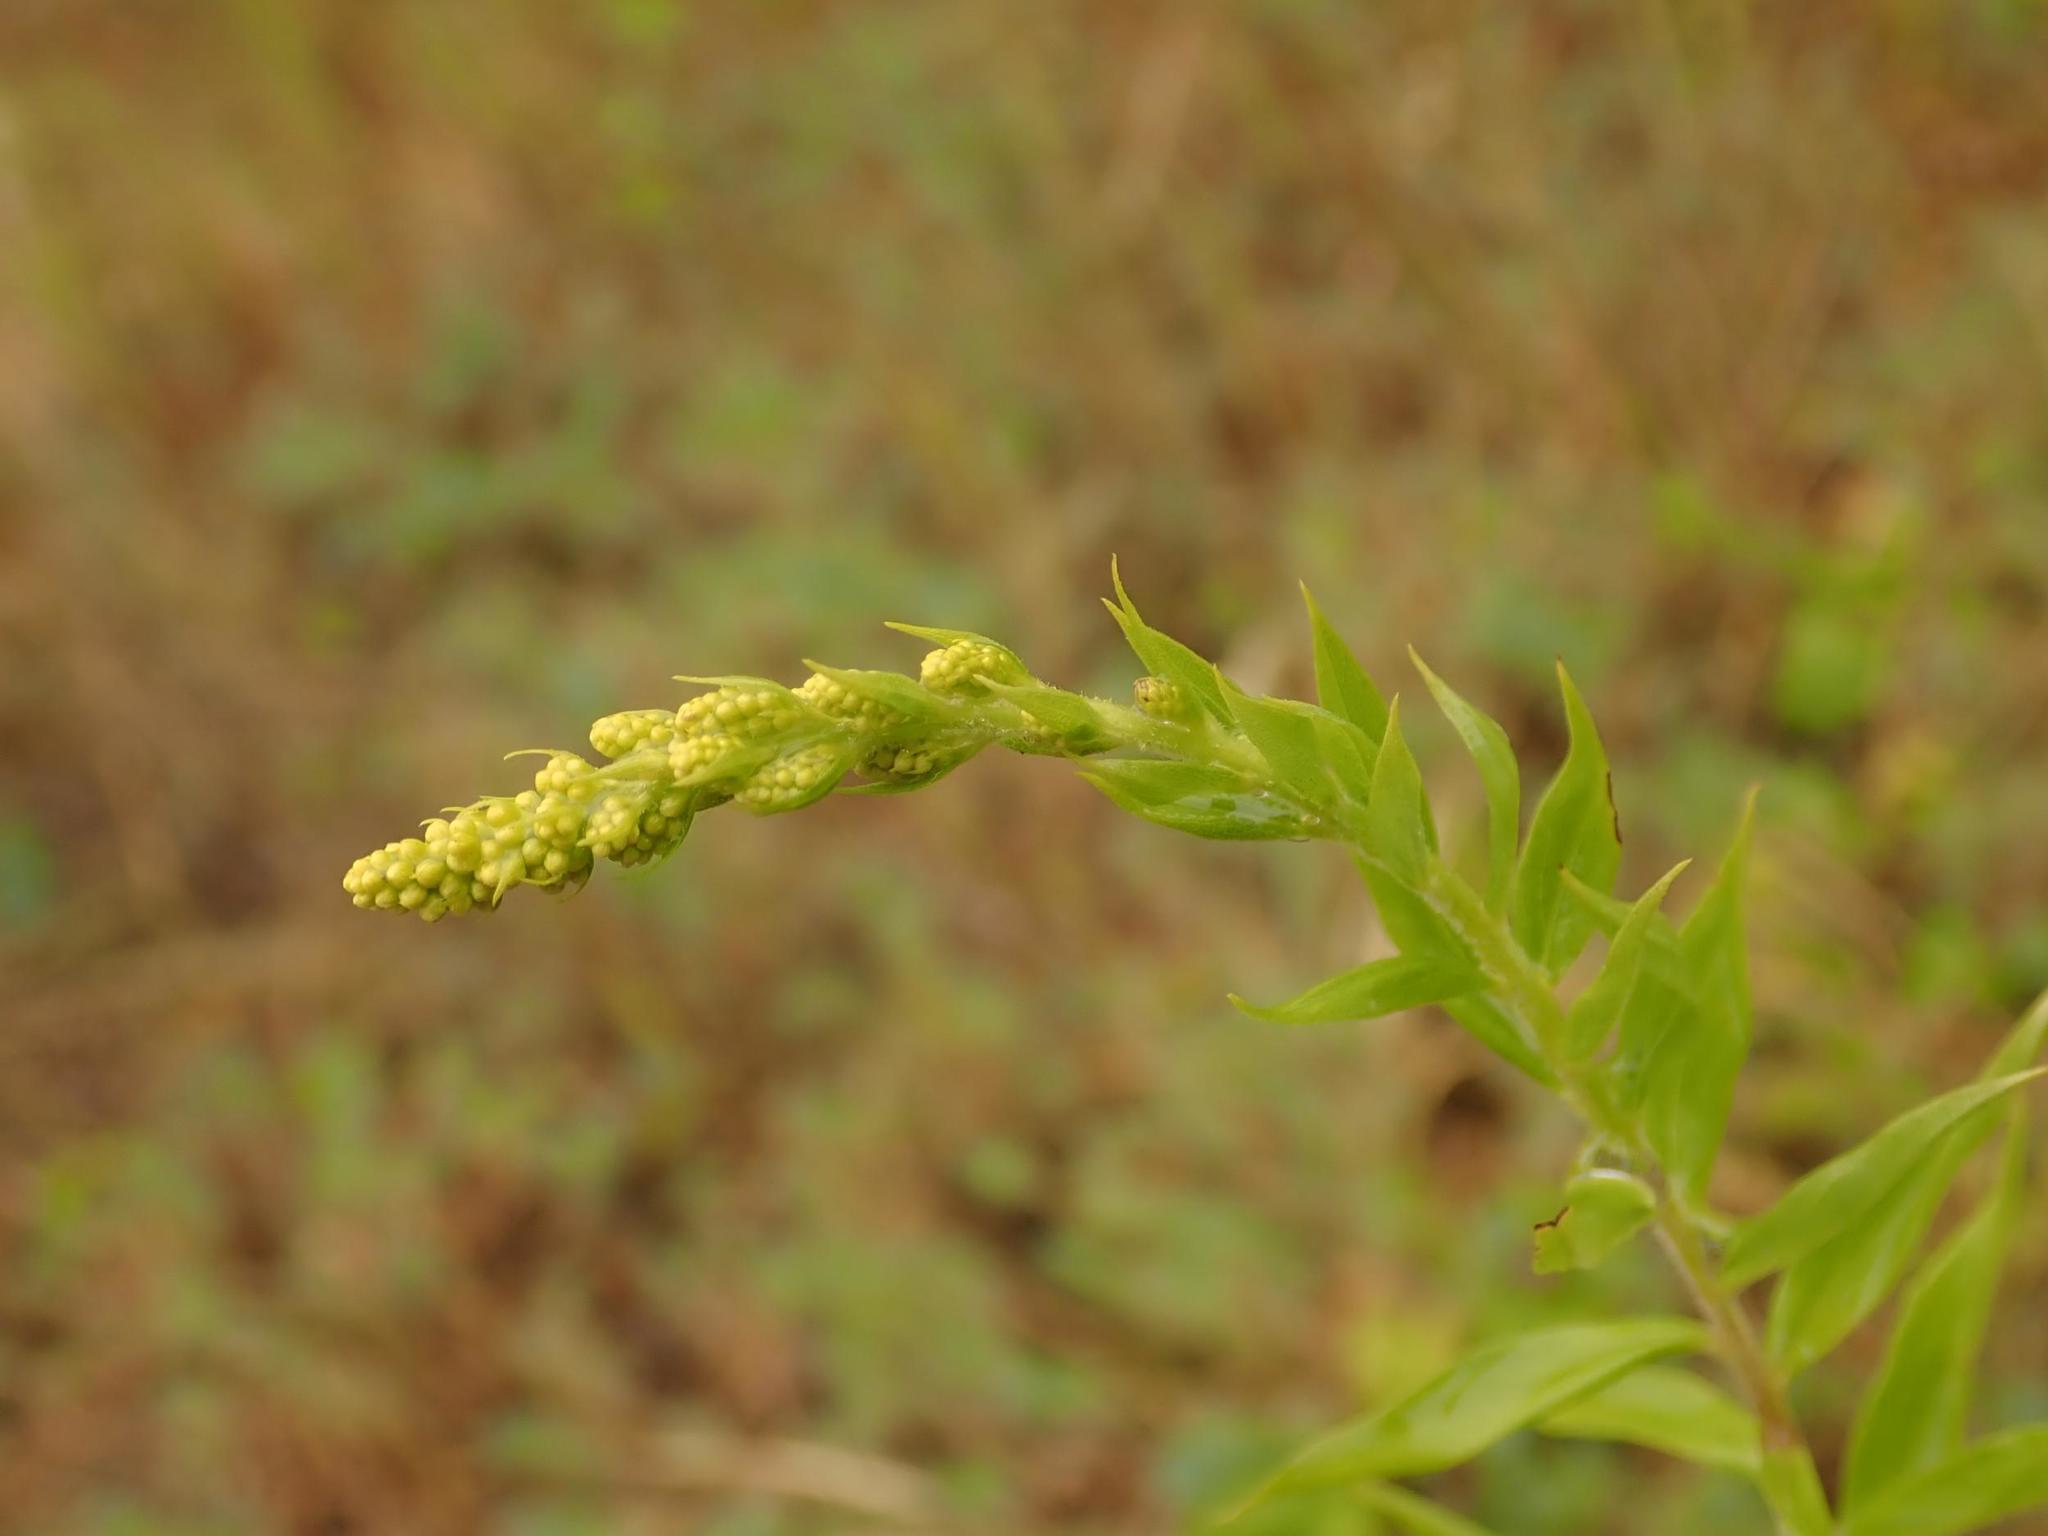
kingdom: Plantae
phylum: Tracheophyta
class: Magnoliopsida
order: Asterales
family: Asteraceae
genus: Solidago
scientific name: Solidago canadensis
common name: Canada goldenrod
